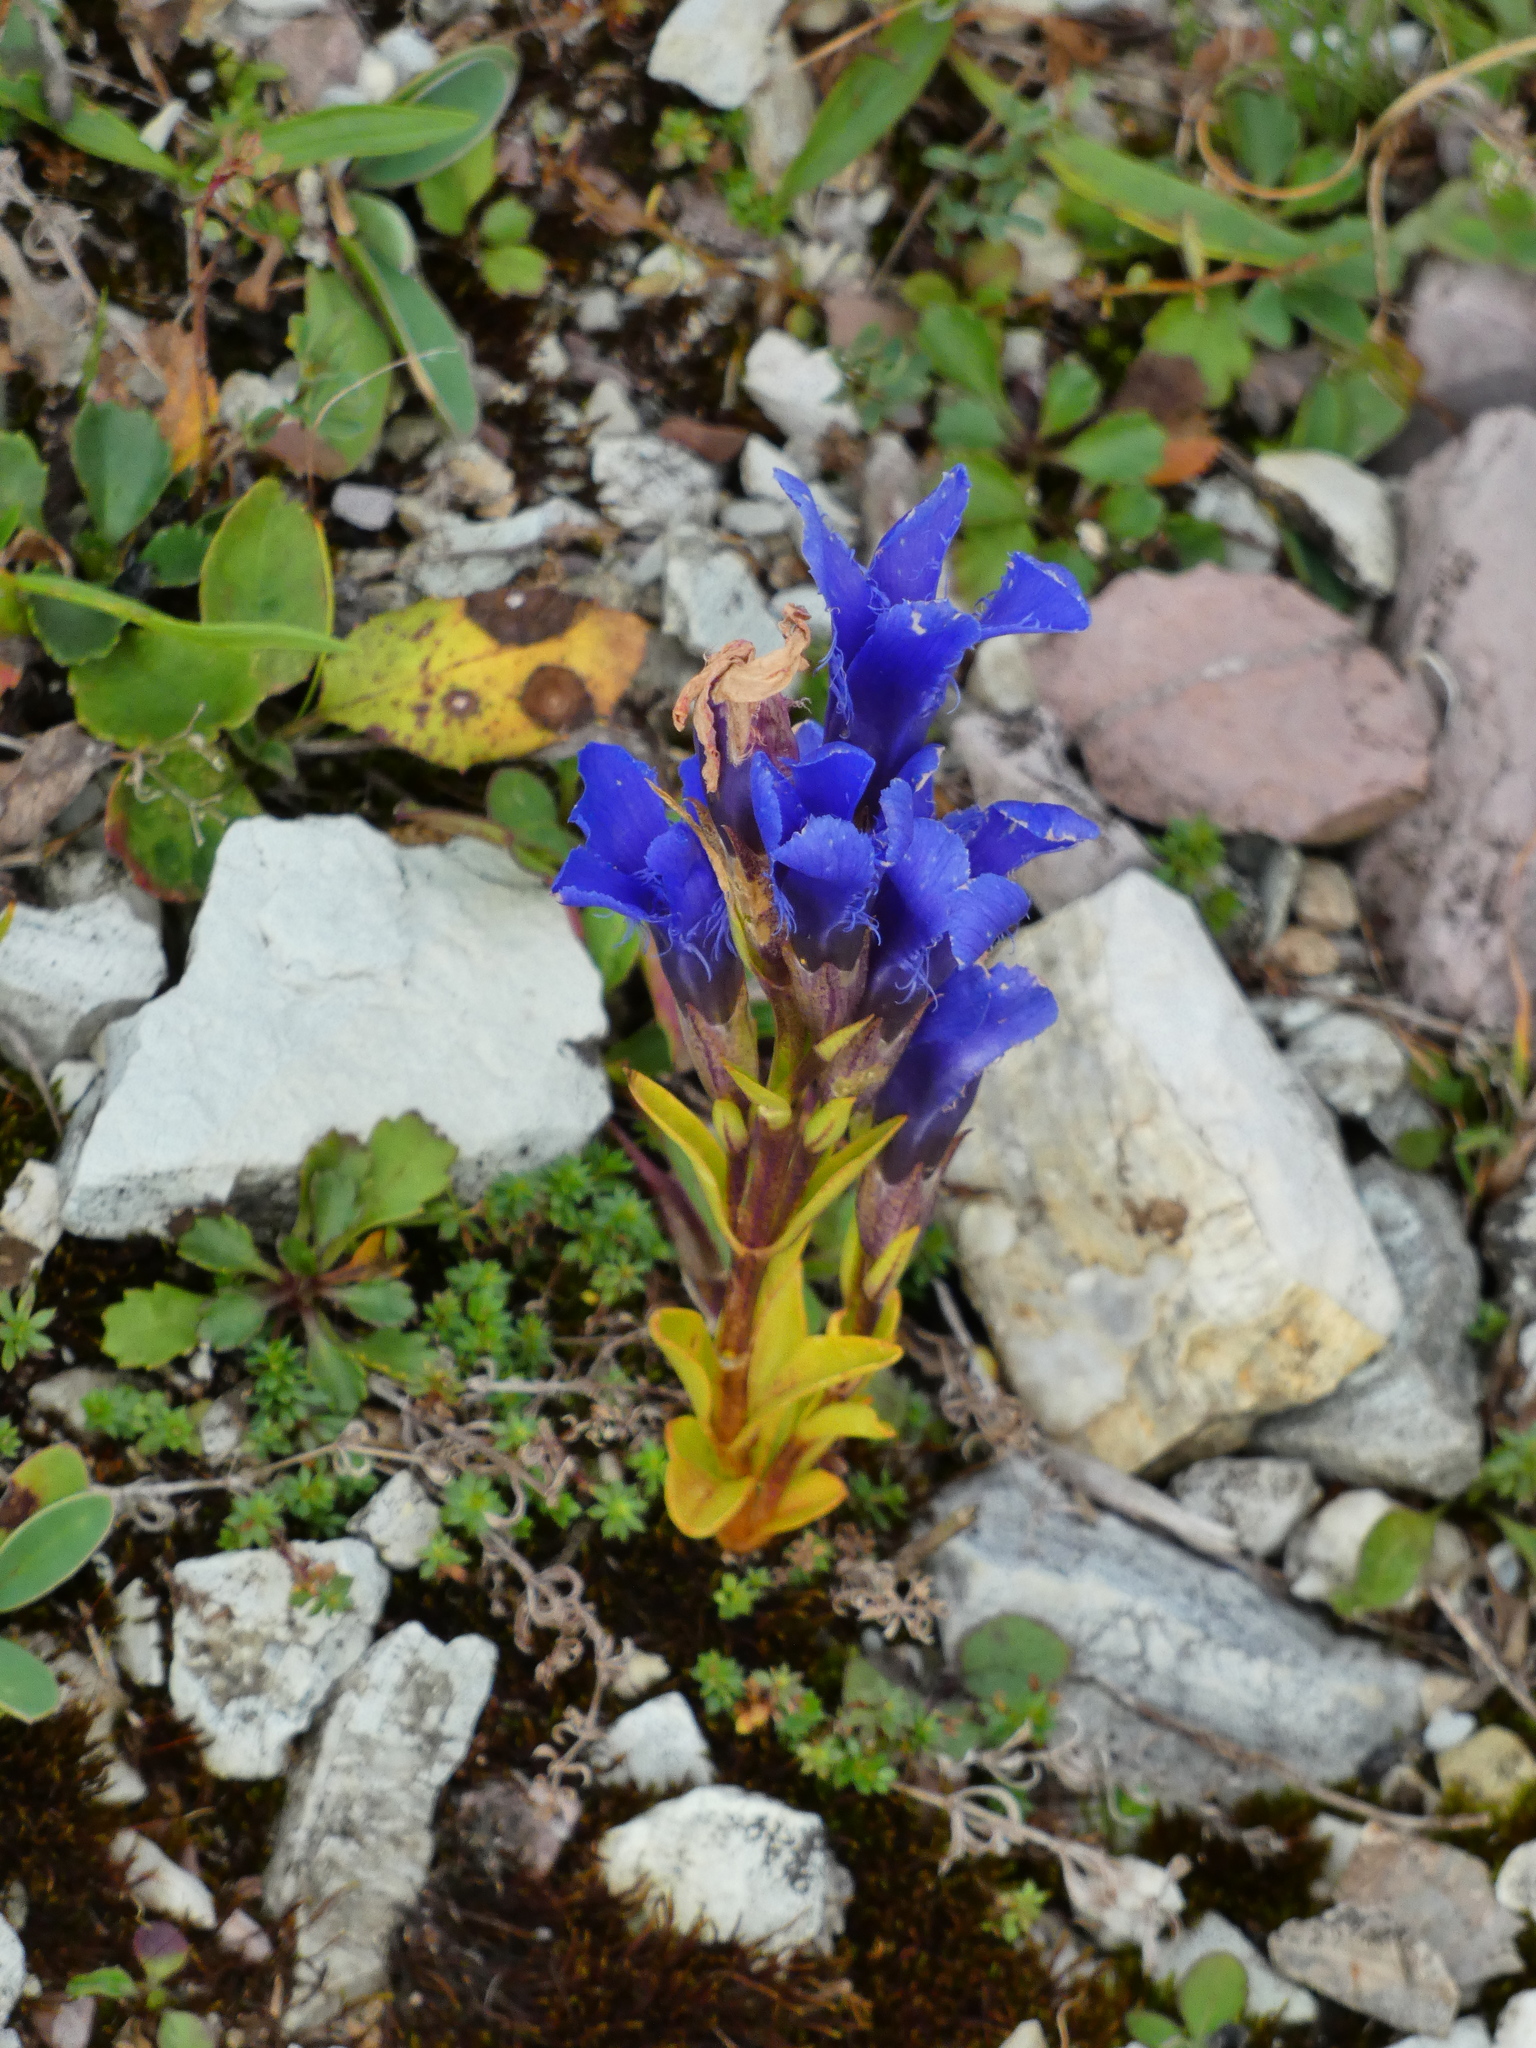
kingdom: Plantae
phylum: Tracheophyta
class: Magnoliopsida
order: Gentianales
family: Gentianaceae
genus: Gentianopsis
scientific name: Gentianopsis ciliata
